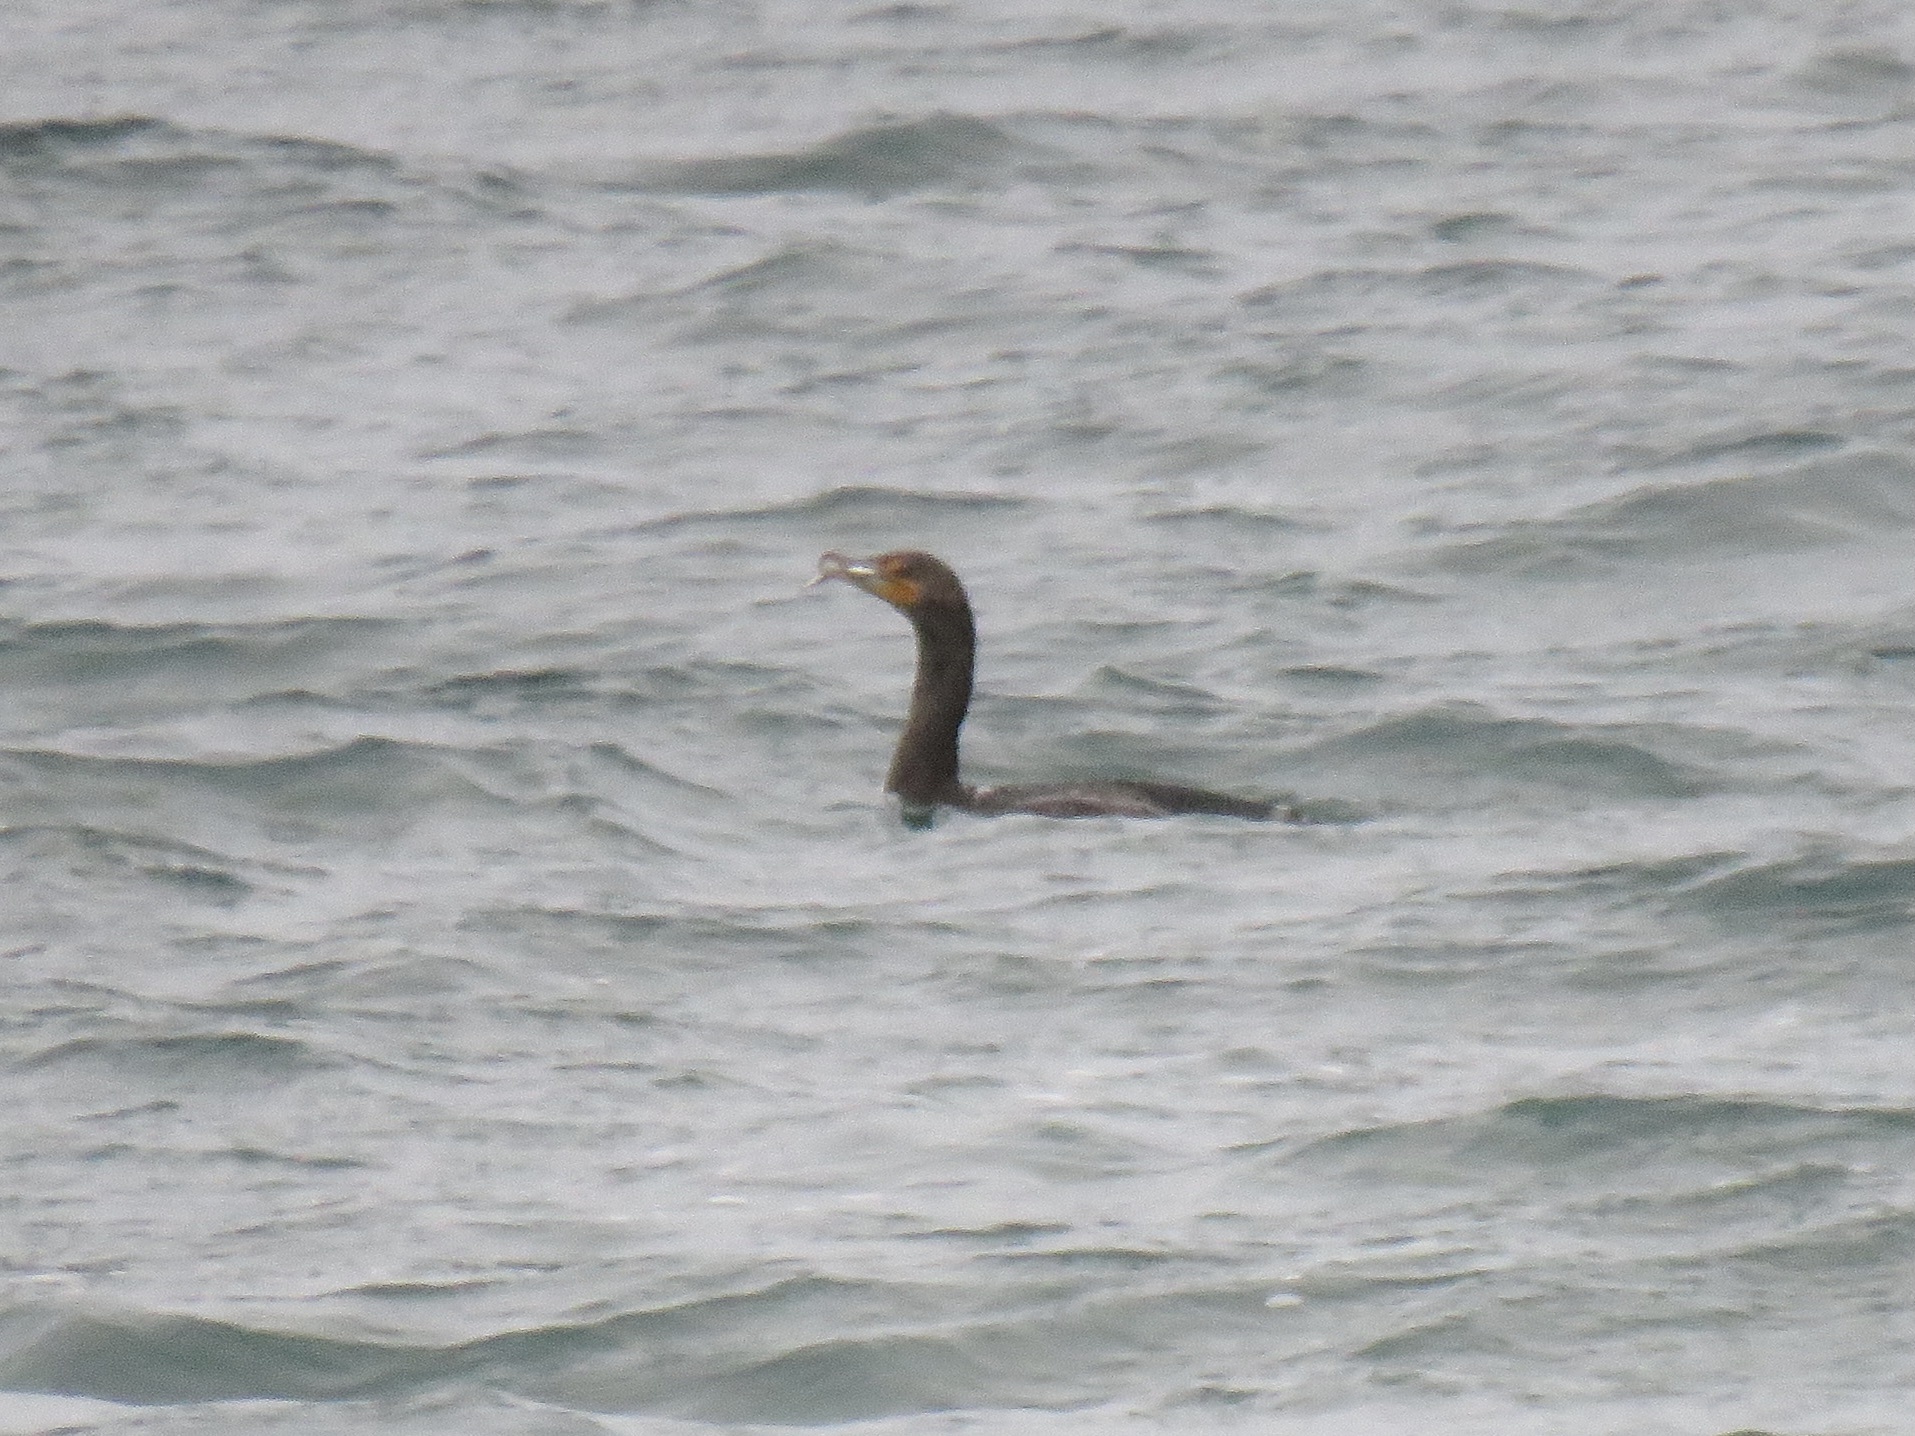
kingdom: Animalia
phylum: Chordata
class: Aves
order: Suliformes
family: Phalacrocoracidae
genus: Phalacrocorax
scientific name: Phalacrocorax auritus
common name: Double-crested cormorant
